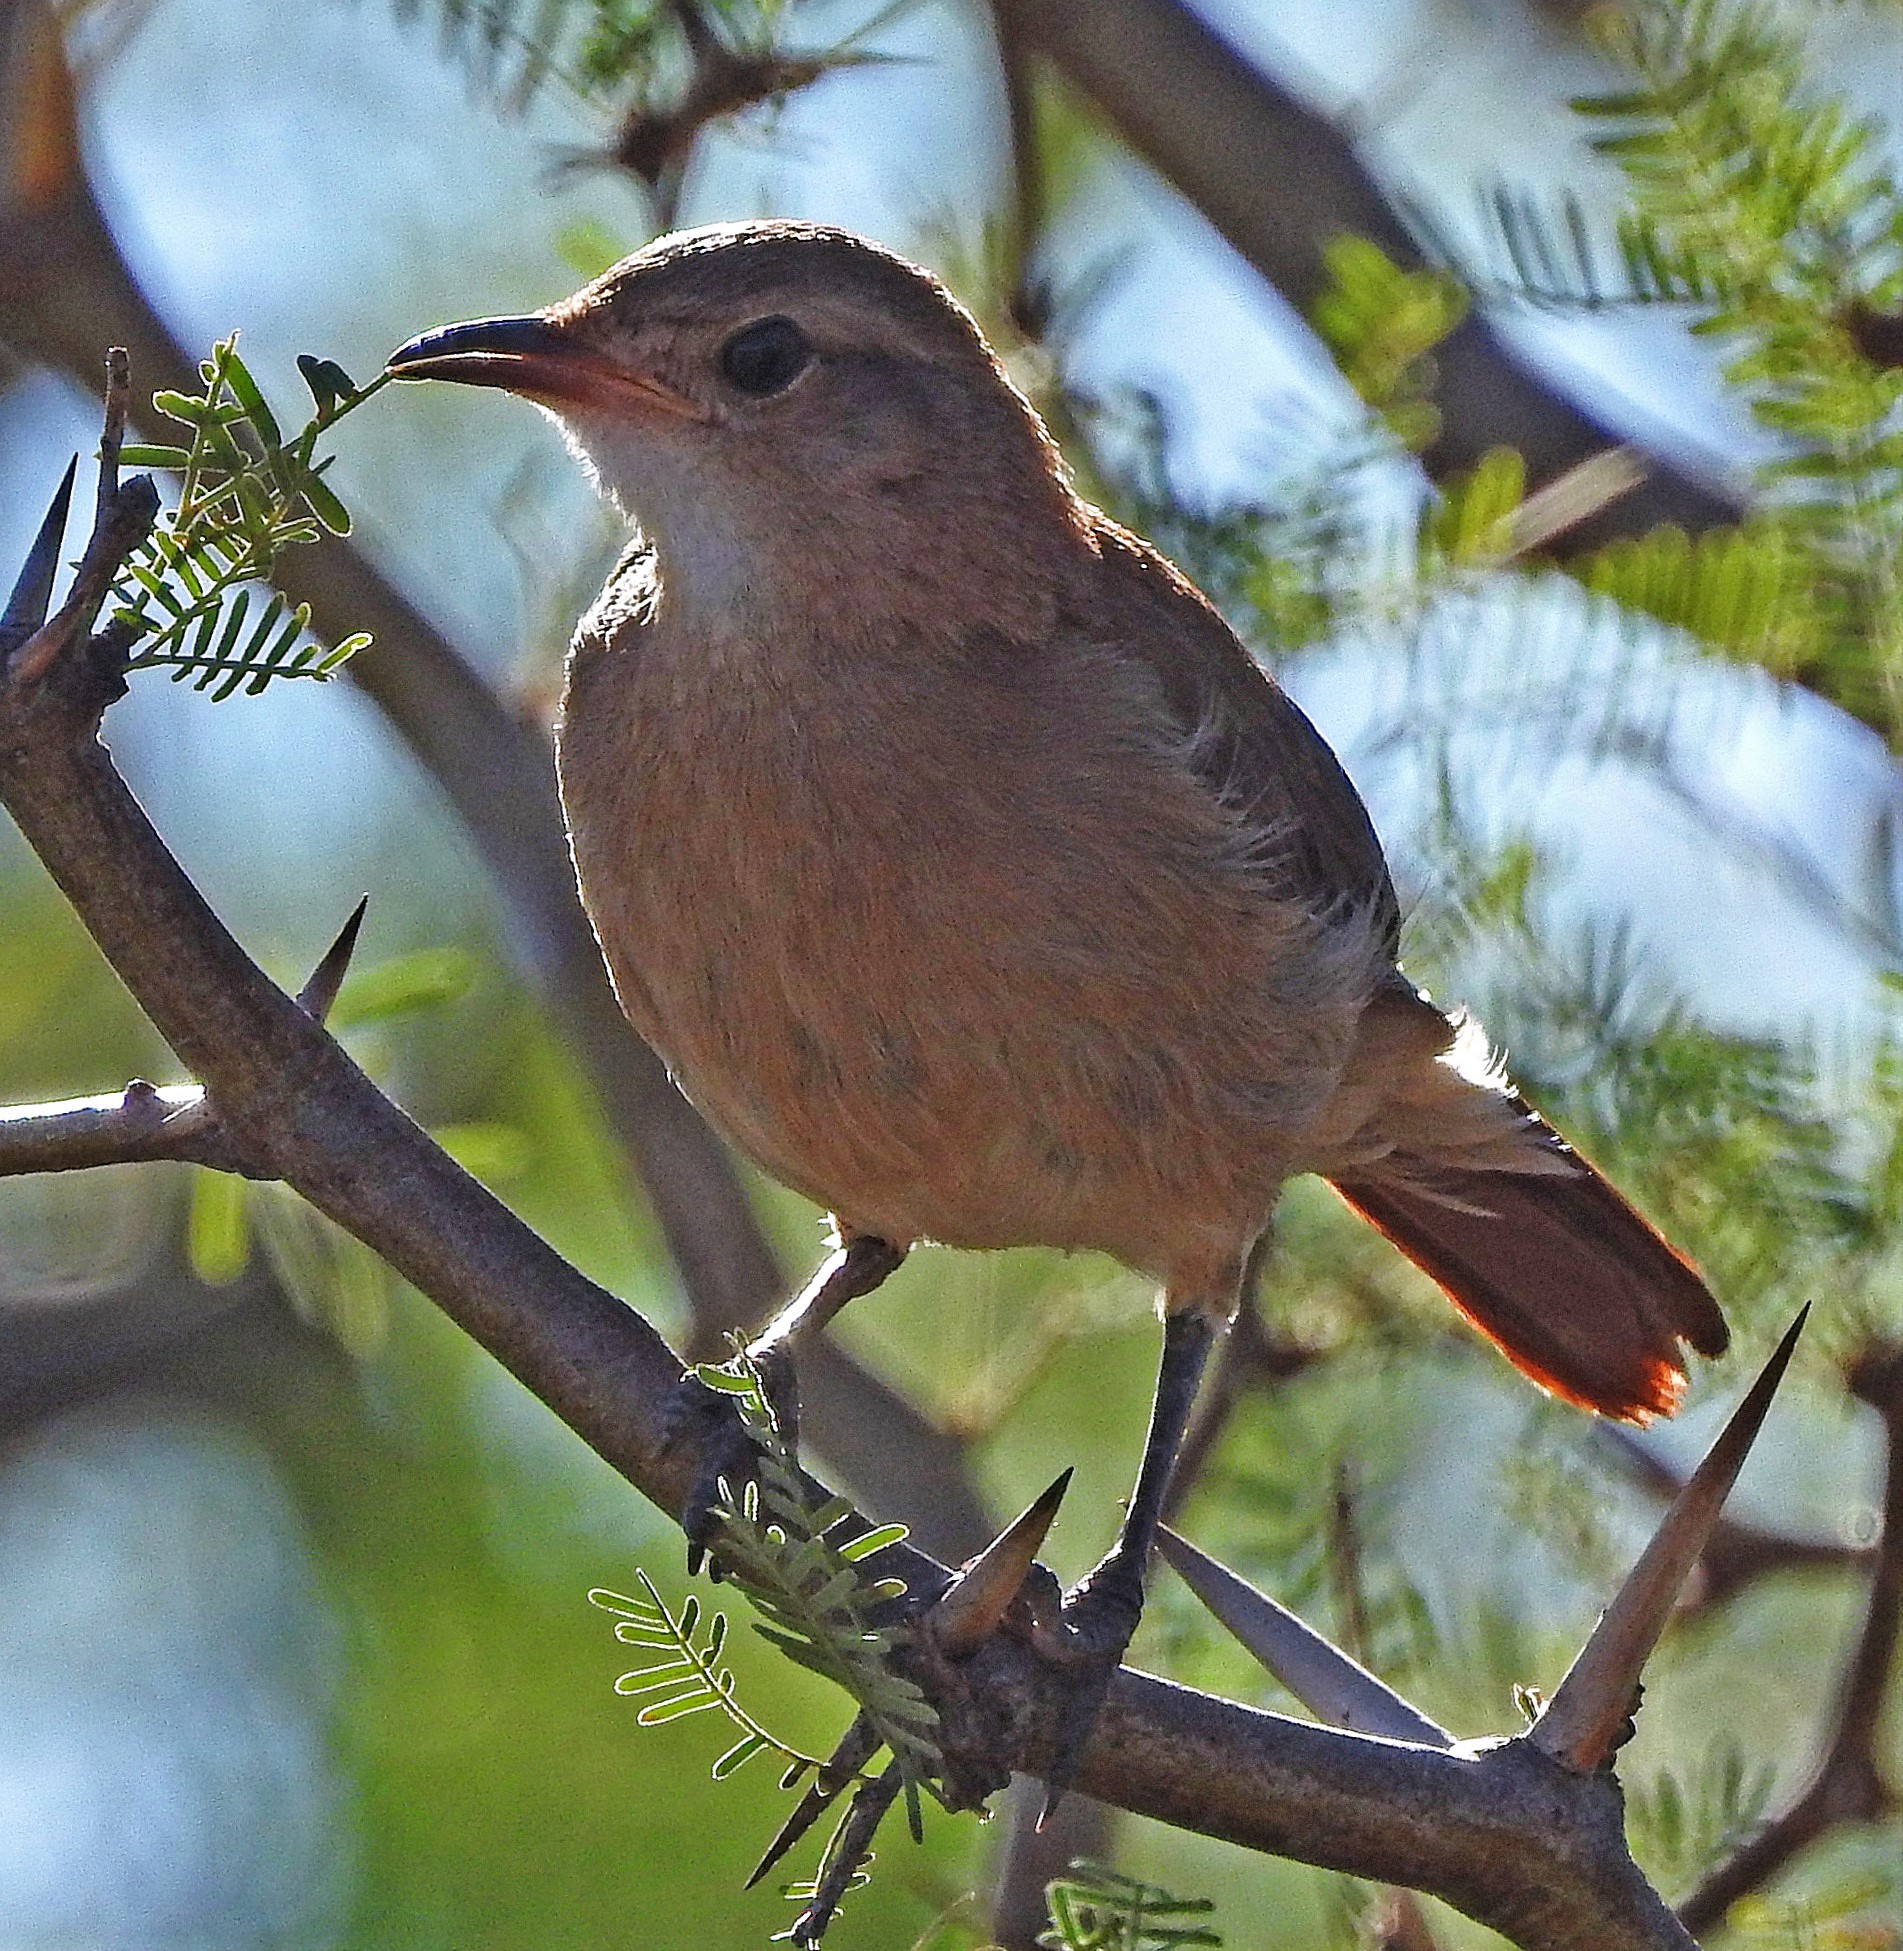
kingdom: Animalia
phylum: Chordata
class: Aves
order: Passeriformes
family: Furnariidae
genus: Furnarius
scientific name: Furnarius rufus
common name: Rufous hornero
